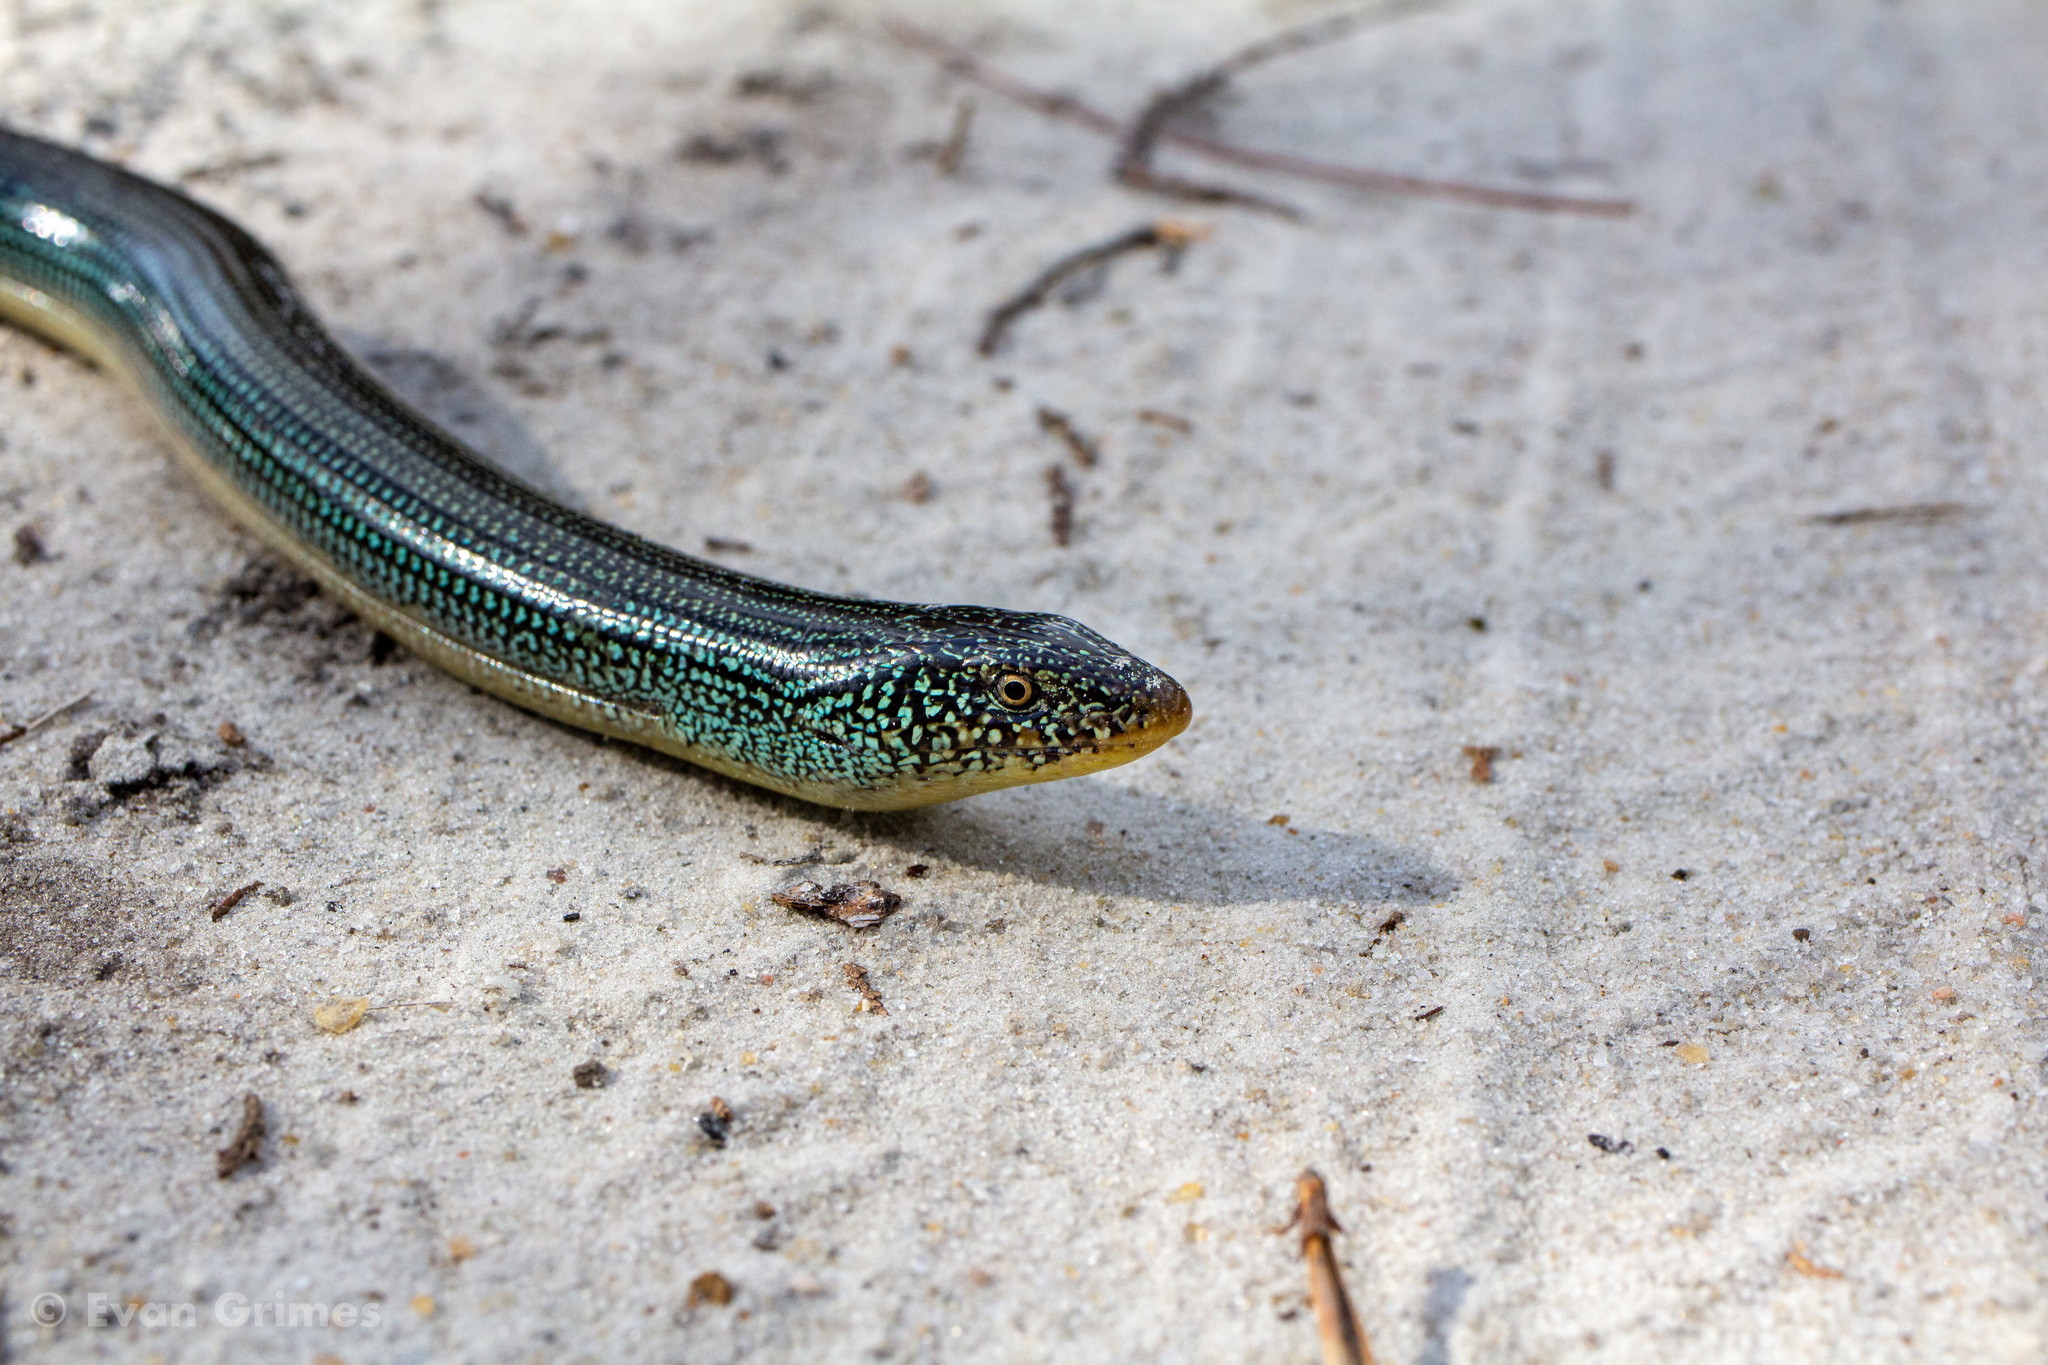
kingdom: Animalia
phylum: Chordata
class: Squamata
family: Anguidae
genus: Ophisaurus
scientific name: Ophisaurus ventralis
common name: Eastern glass lizard
